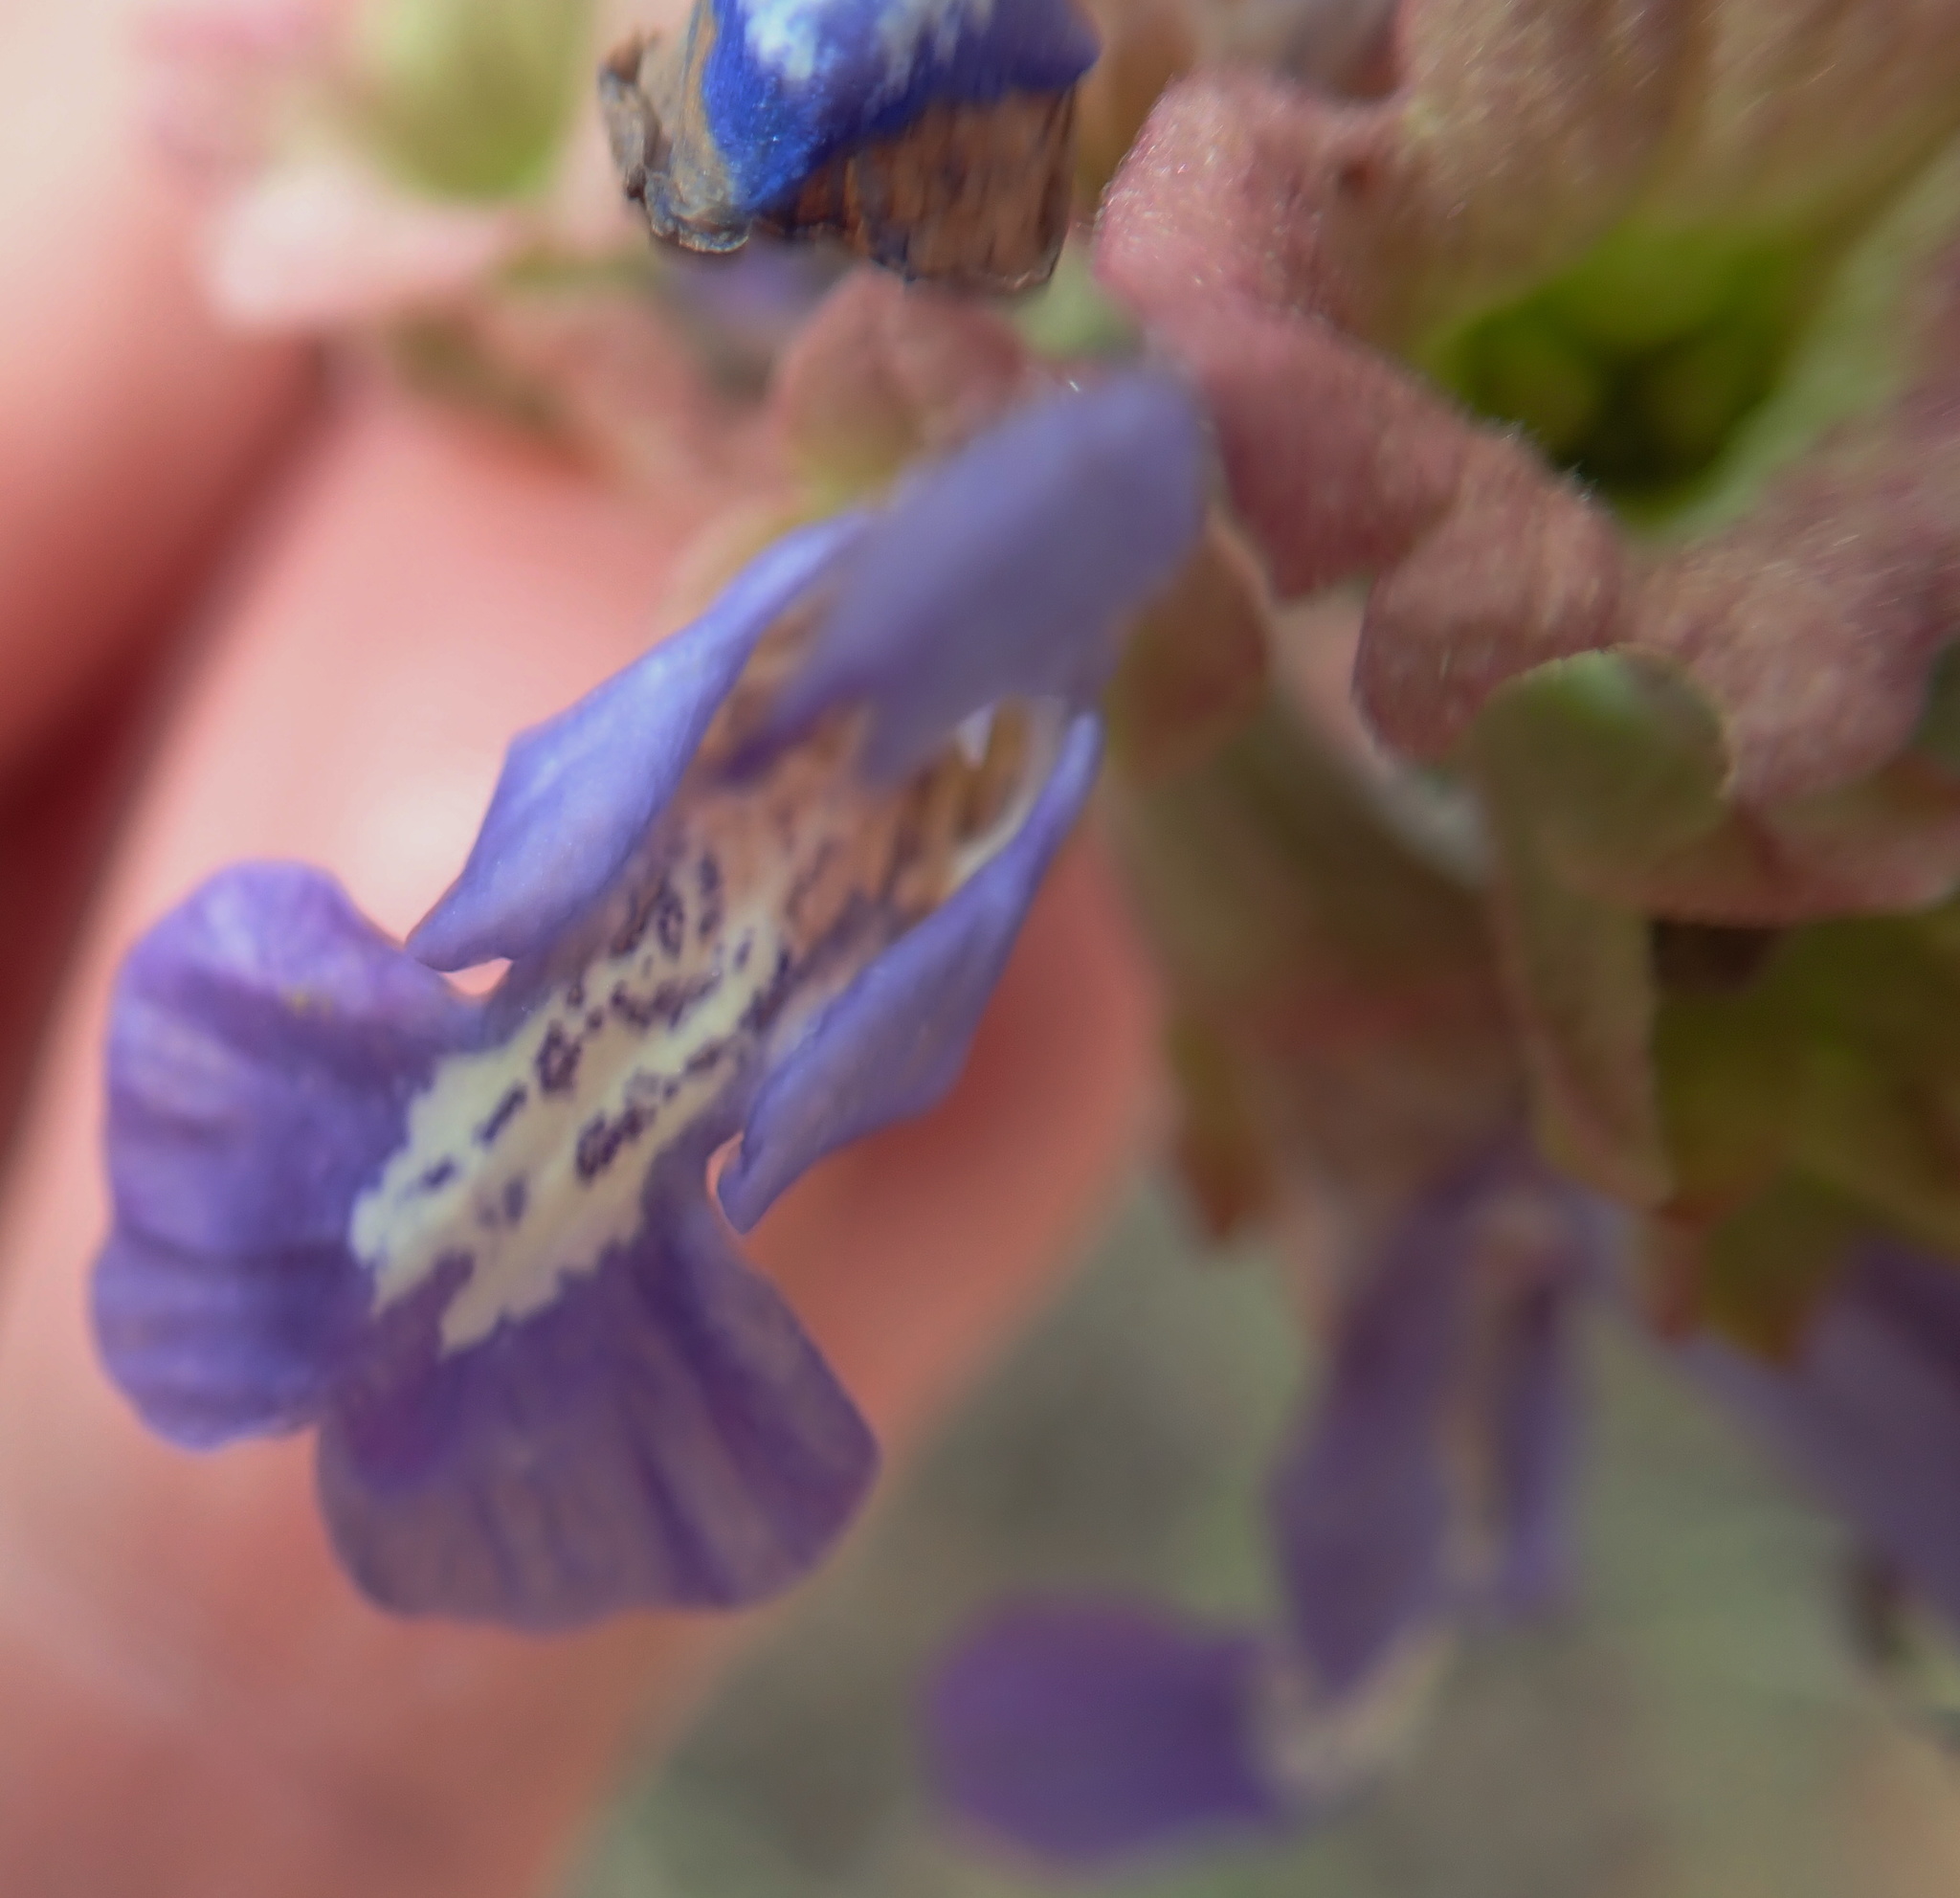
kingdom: Plantae
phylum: Tracheophyta
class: Magnoliopsida
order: Lamiales
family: Lamiaceae
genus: Salvia
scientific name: Salvia dentata
